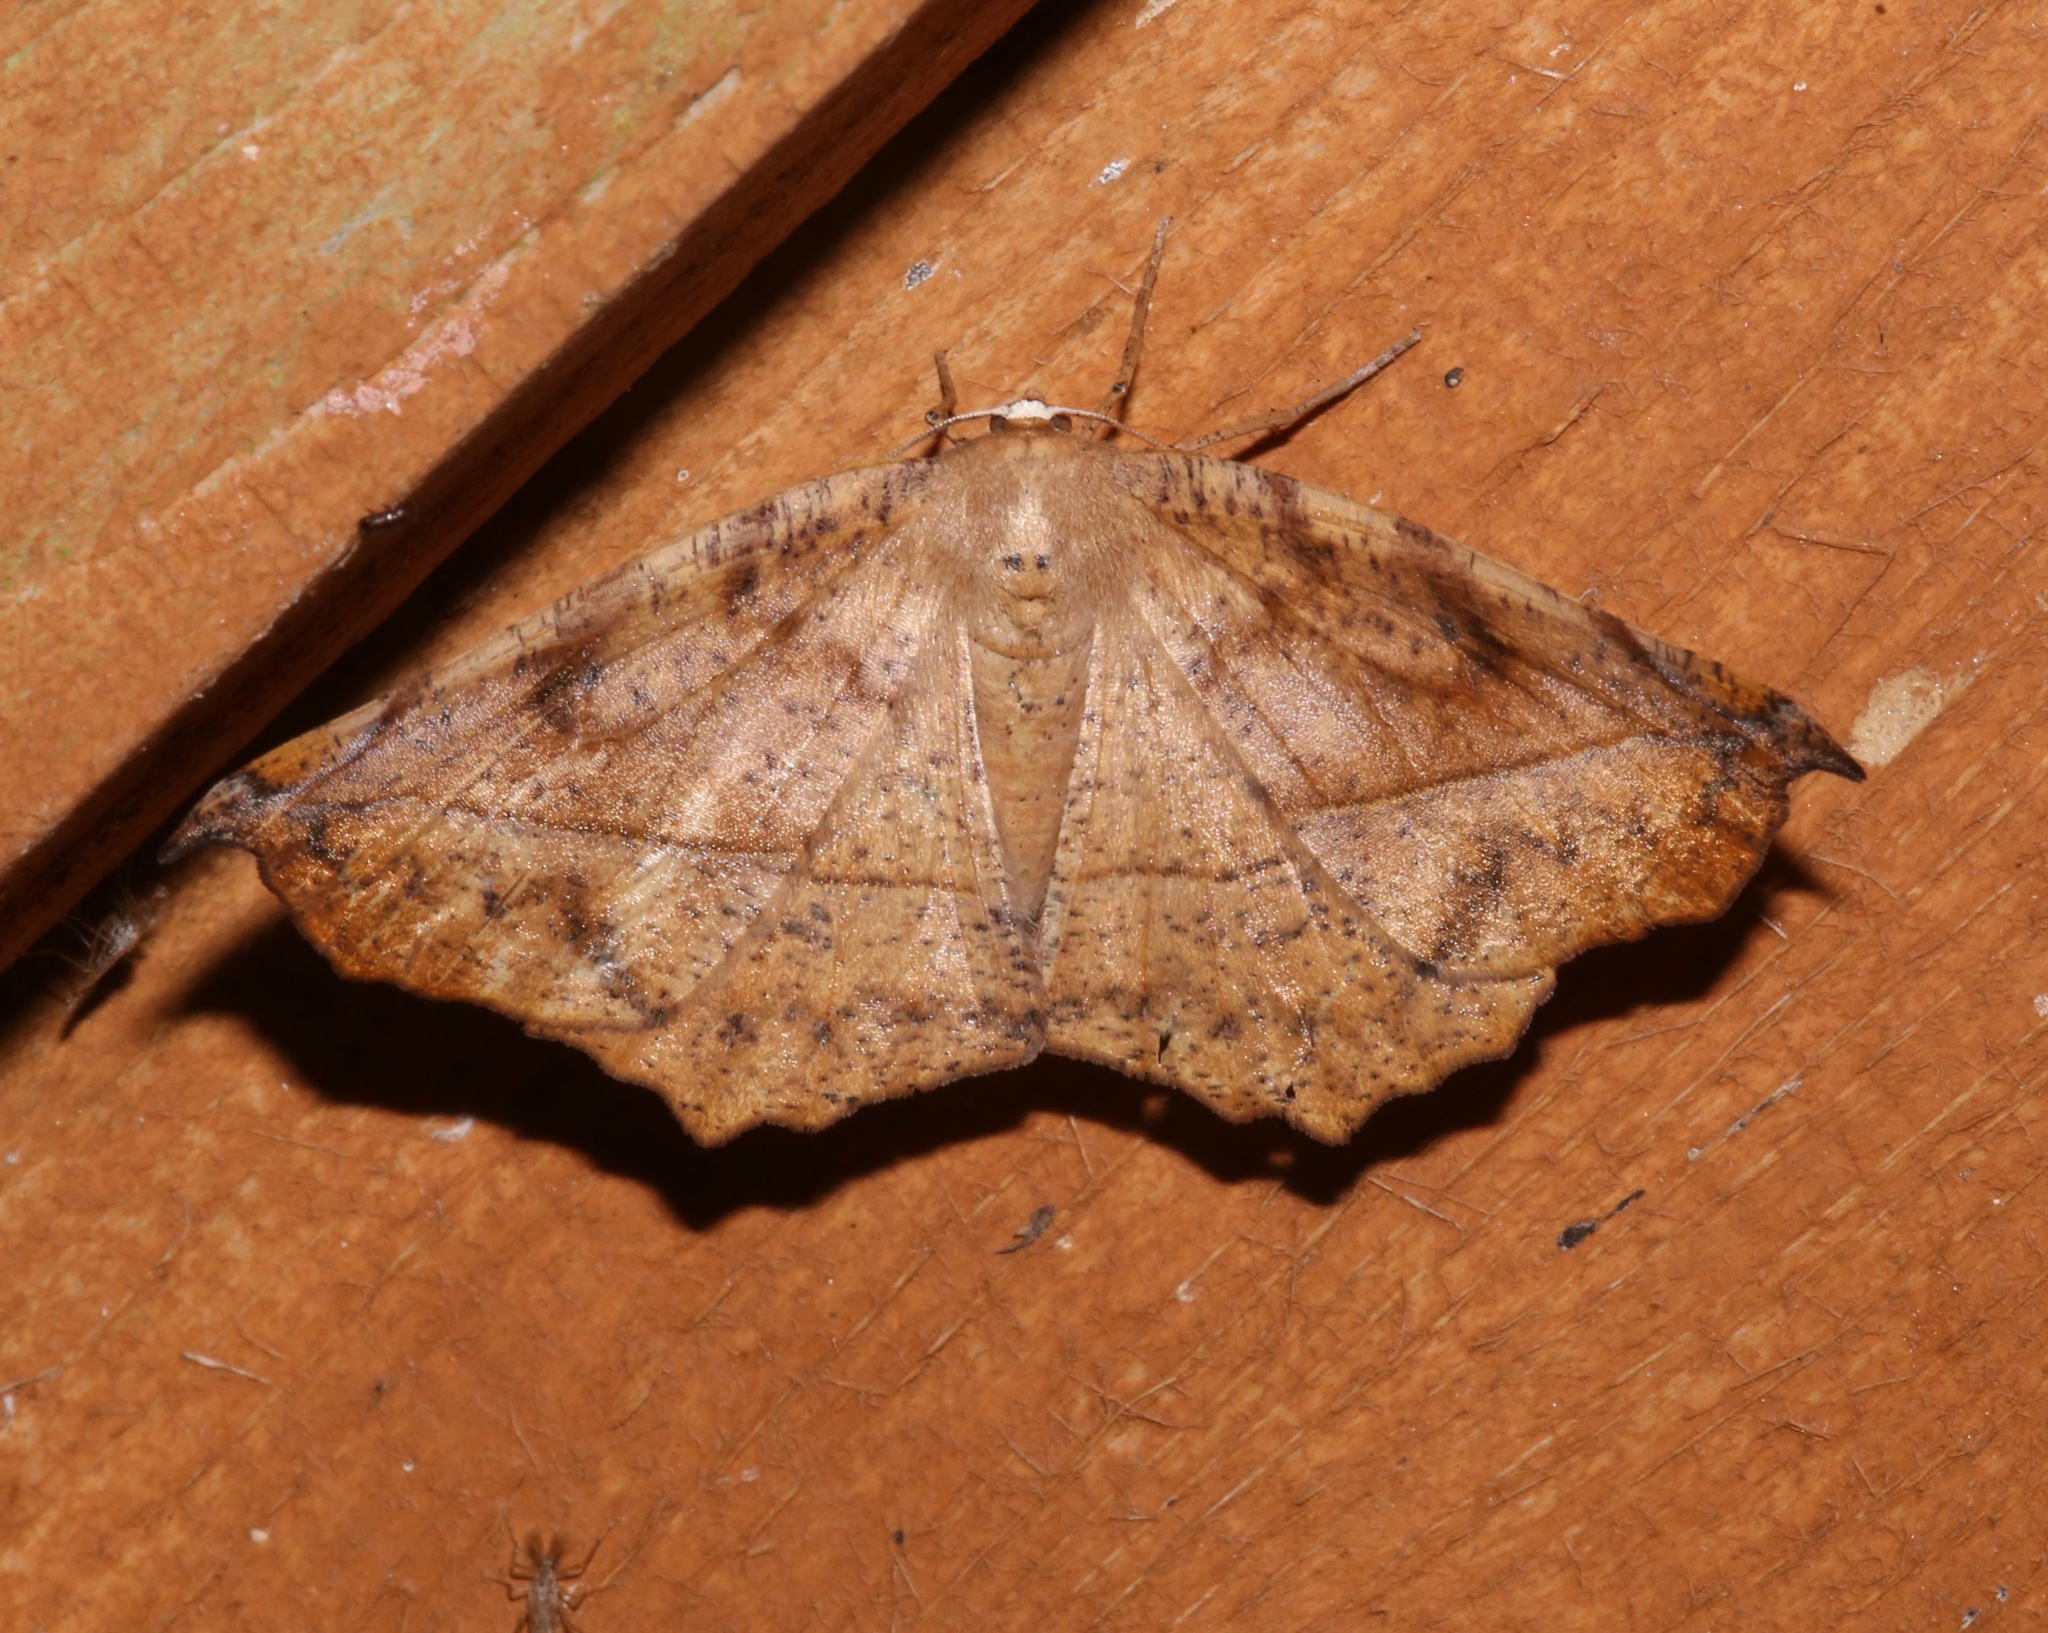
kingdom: Animalia
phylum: Arthropoda
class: Insecta
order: Lepidoptera
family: Geometridae
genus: Eutrapela
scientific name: Eutrapela clemataria
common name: Curved-toothed geometer
